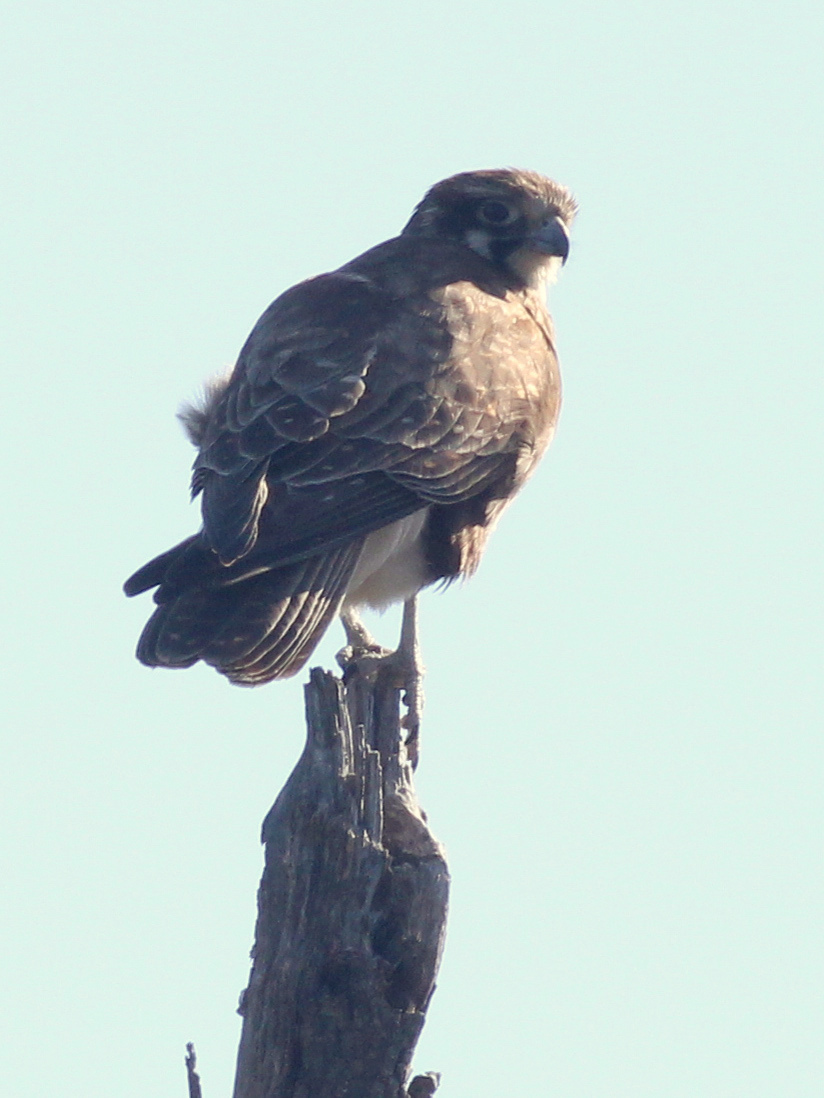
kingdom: Animalia
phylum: Chordata
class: Aves
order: Falconiformes
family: Falconidae
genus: Falco
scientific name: Falco berigora
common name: Brown falcon
